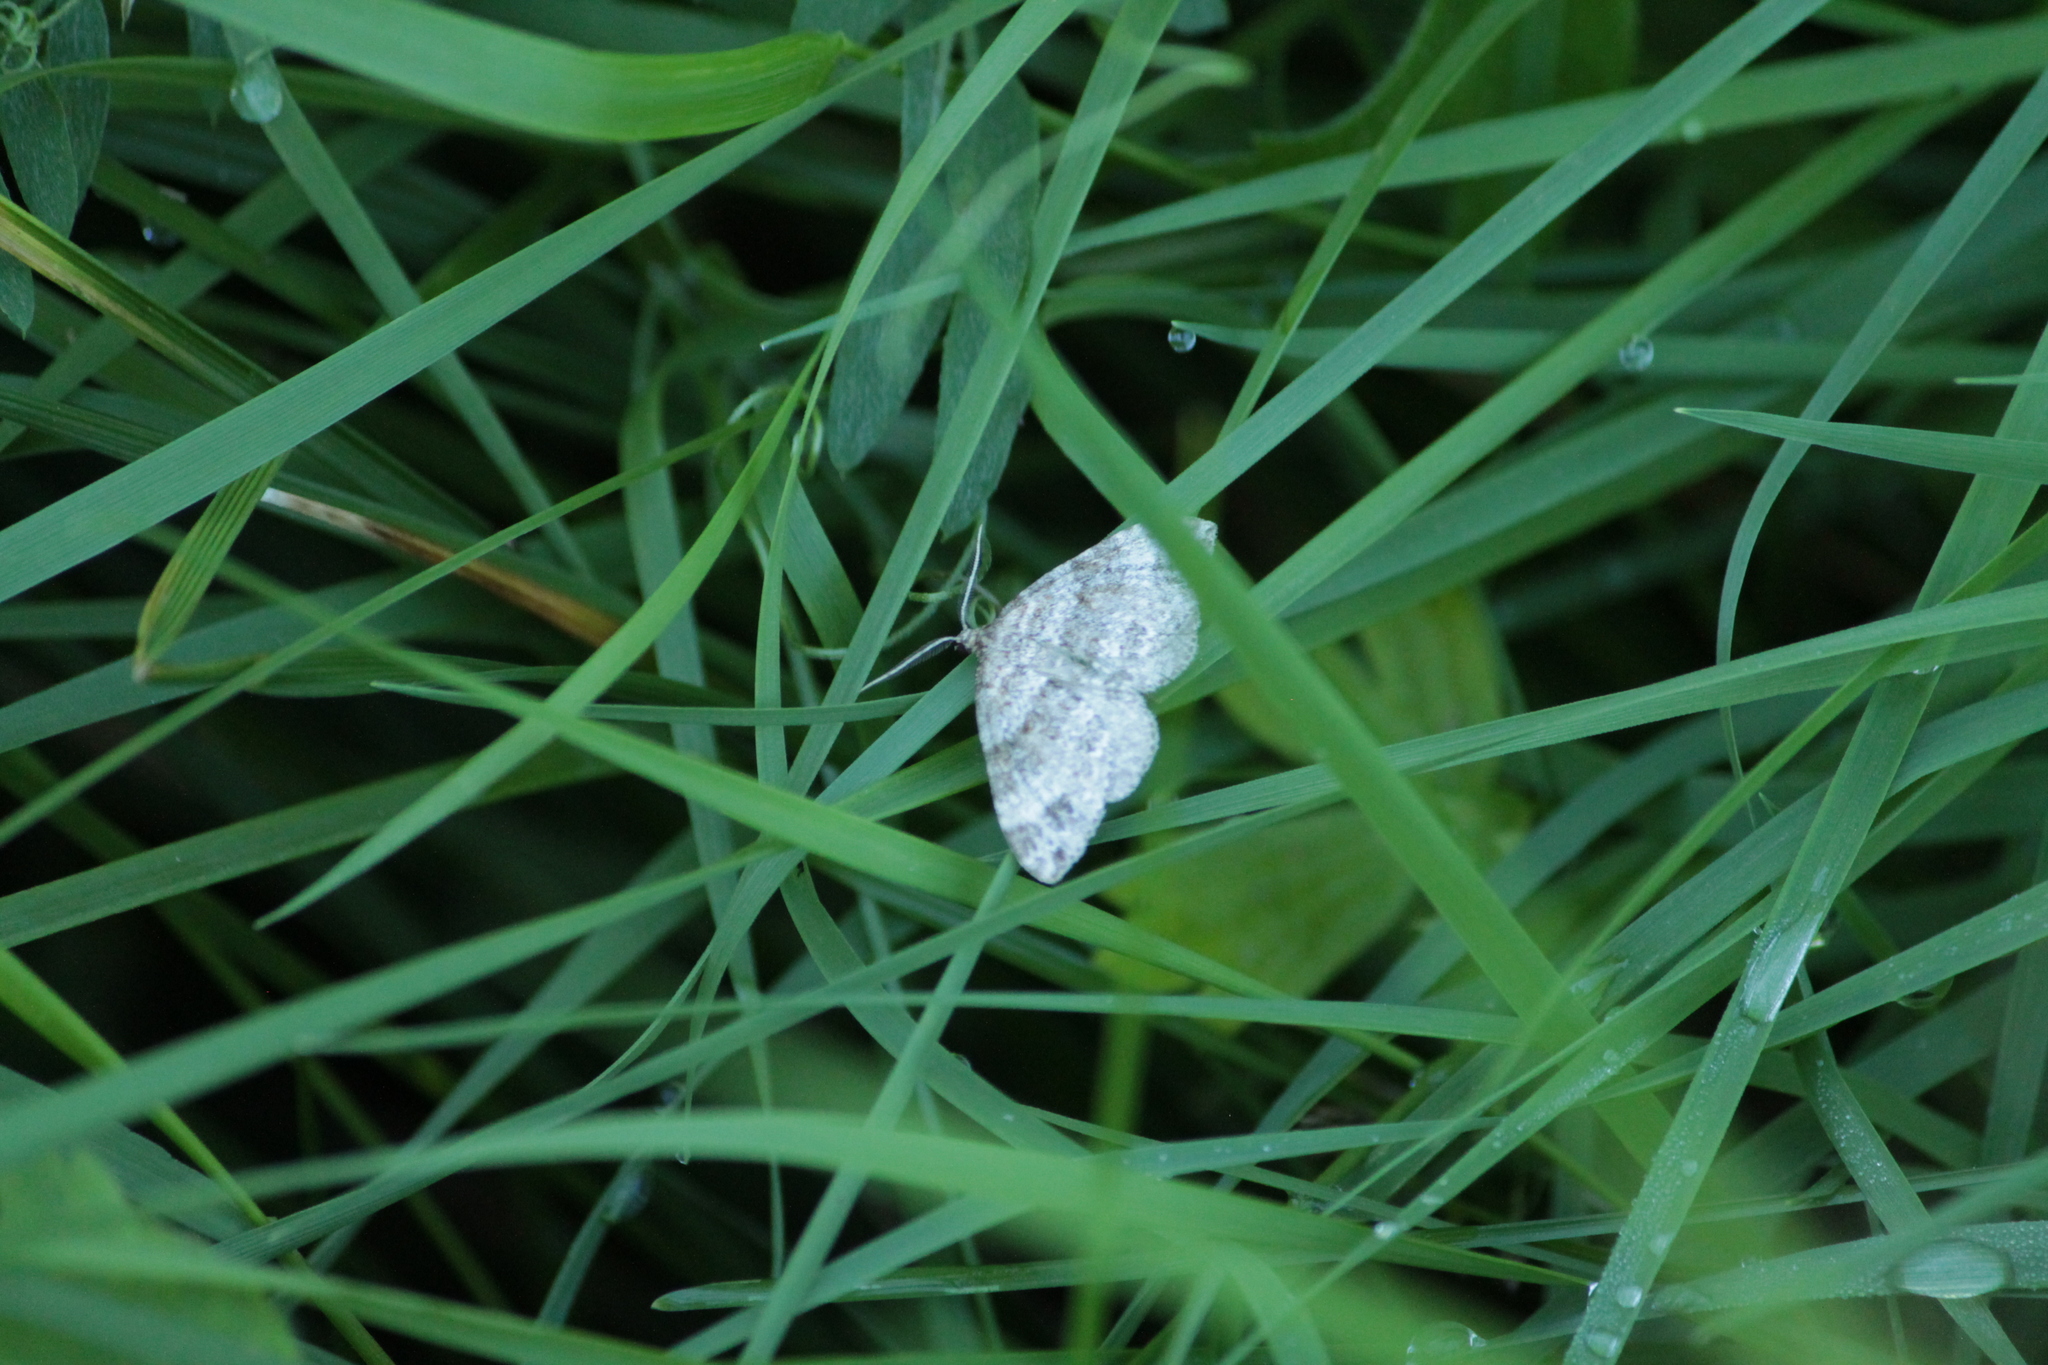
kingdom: Animalia
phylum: Arthropoda
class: Insecta
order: Lepidoptera
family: Geometridae
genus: Perizoma
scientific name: Perizoma didymata
